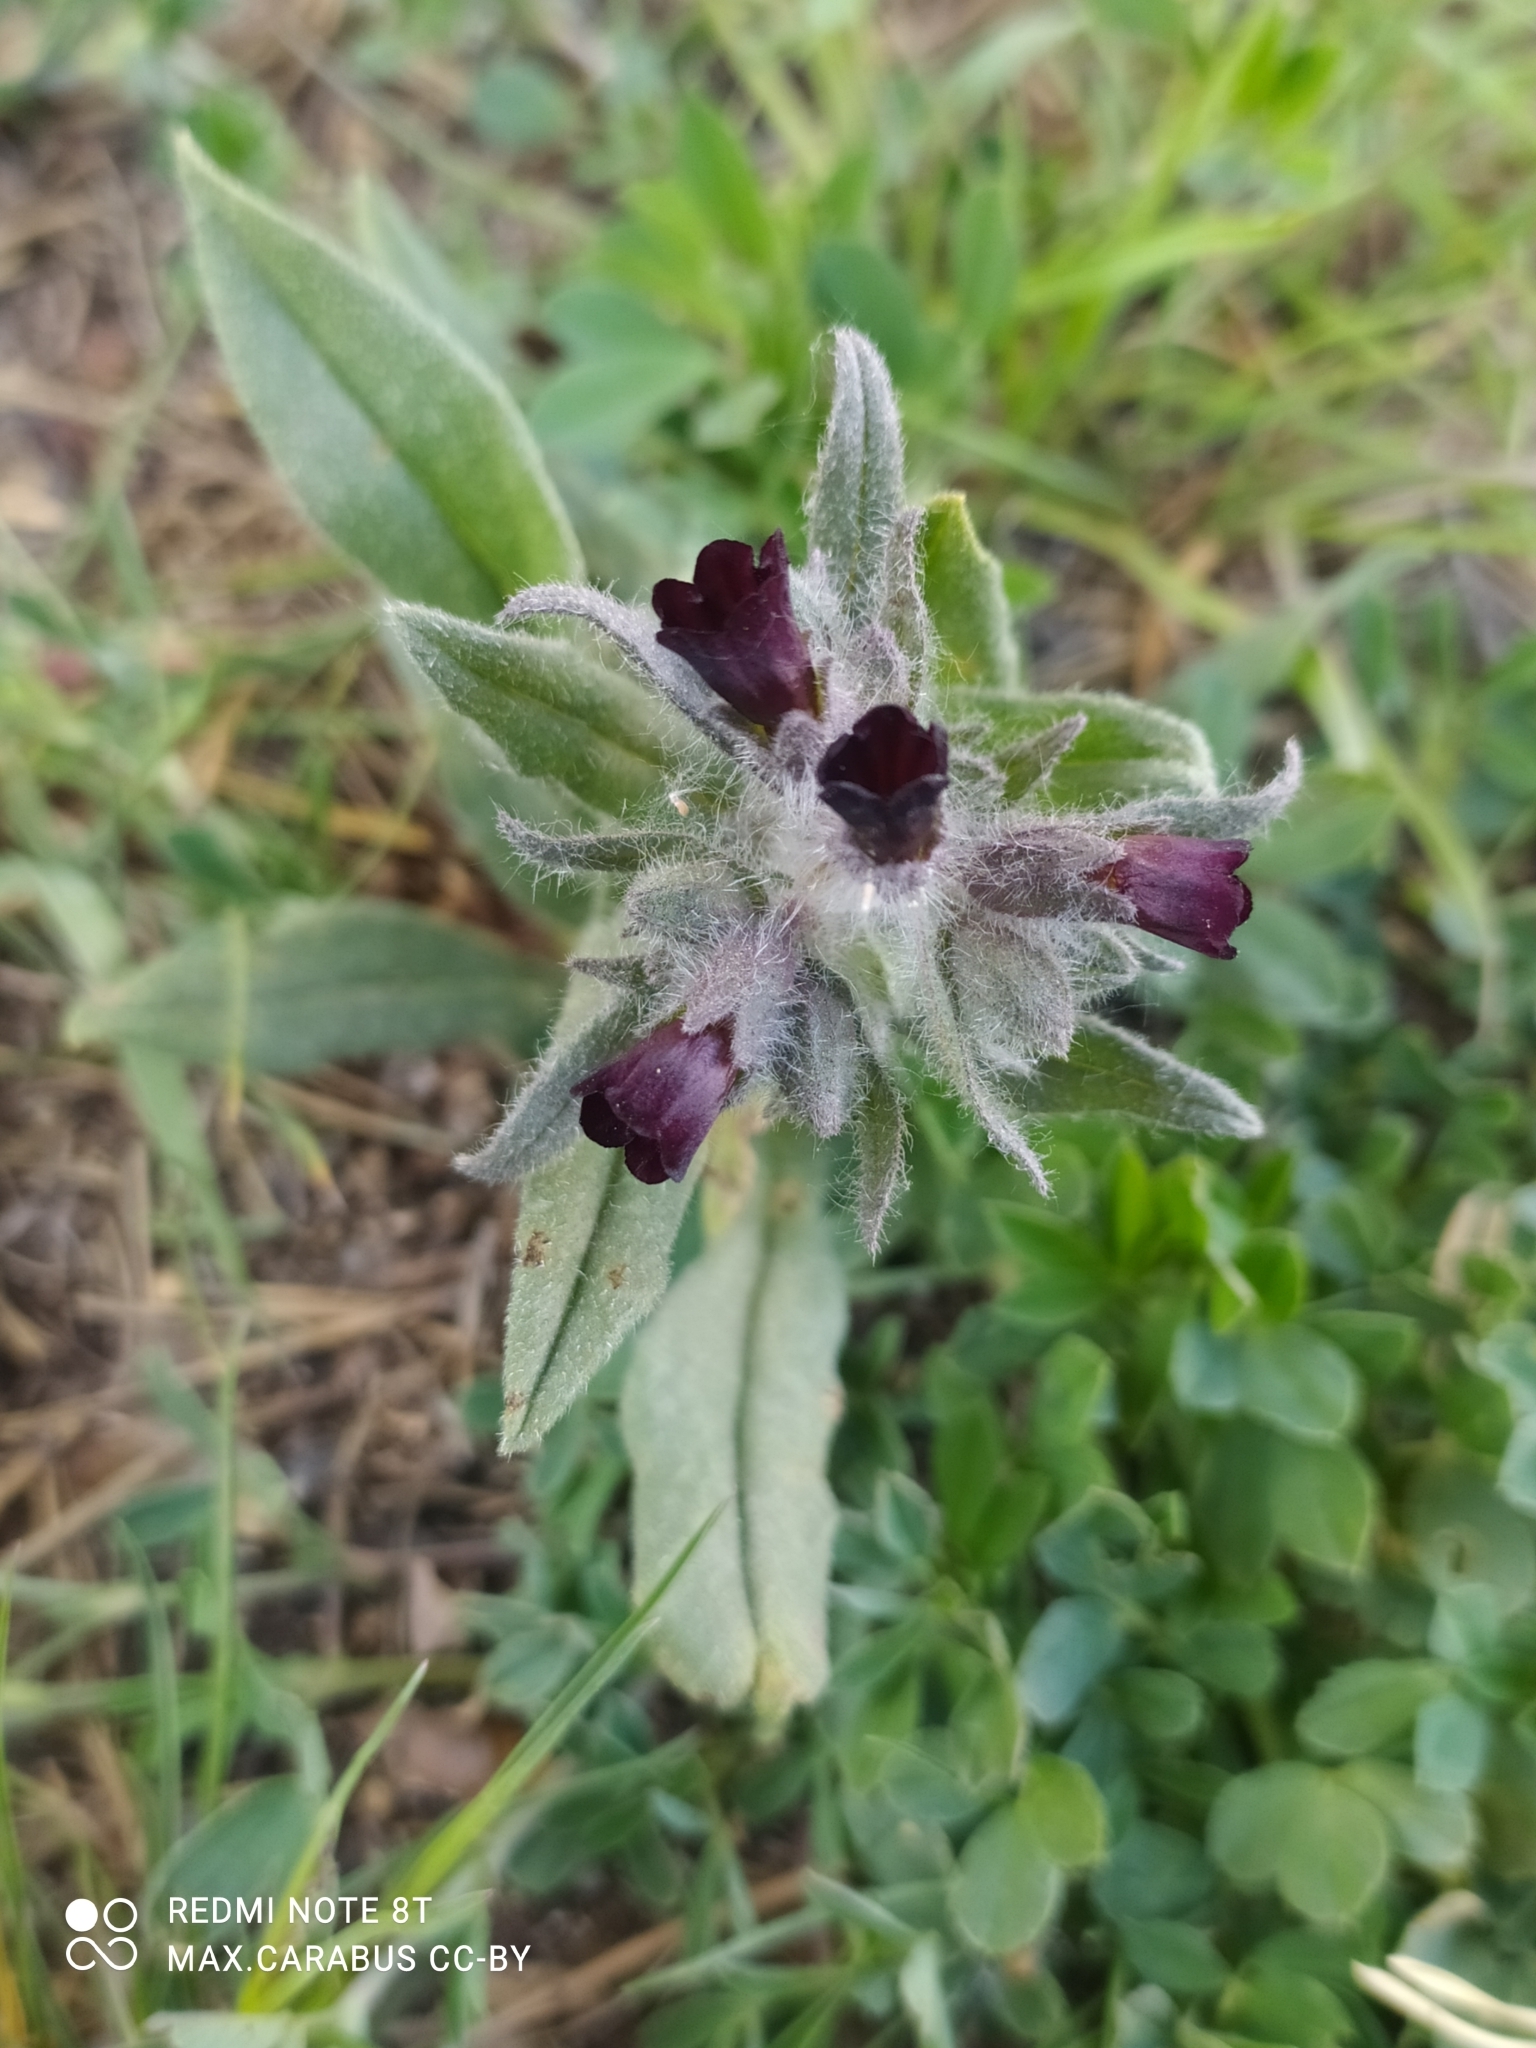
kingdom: Plantae
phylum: Tracheophyta
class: Magnoliopsida
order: Boraginales
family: Boraginaceae
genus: Nonea
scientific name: Nonea pulla
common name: Brown nonea
